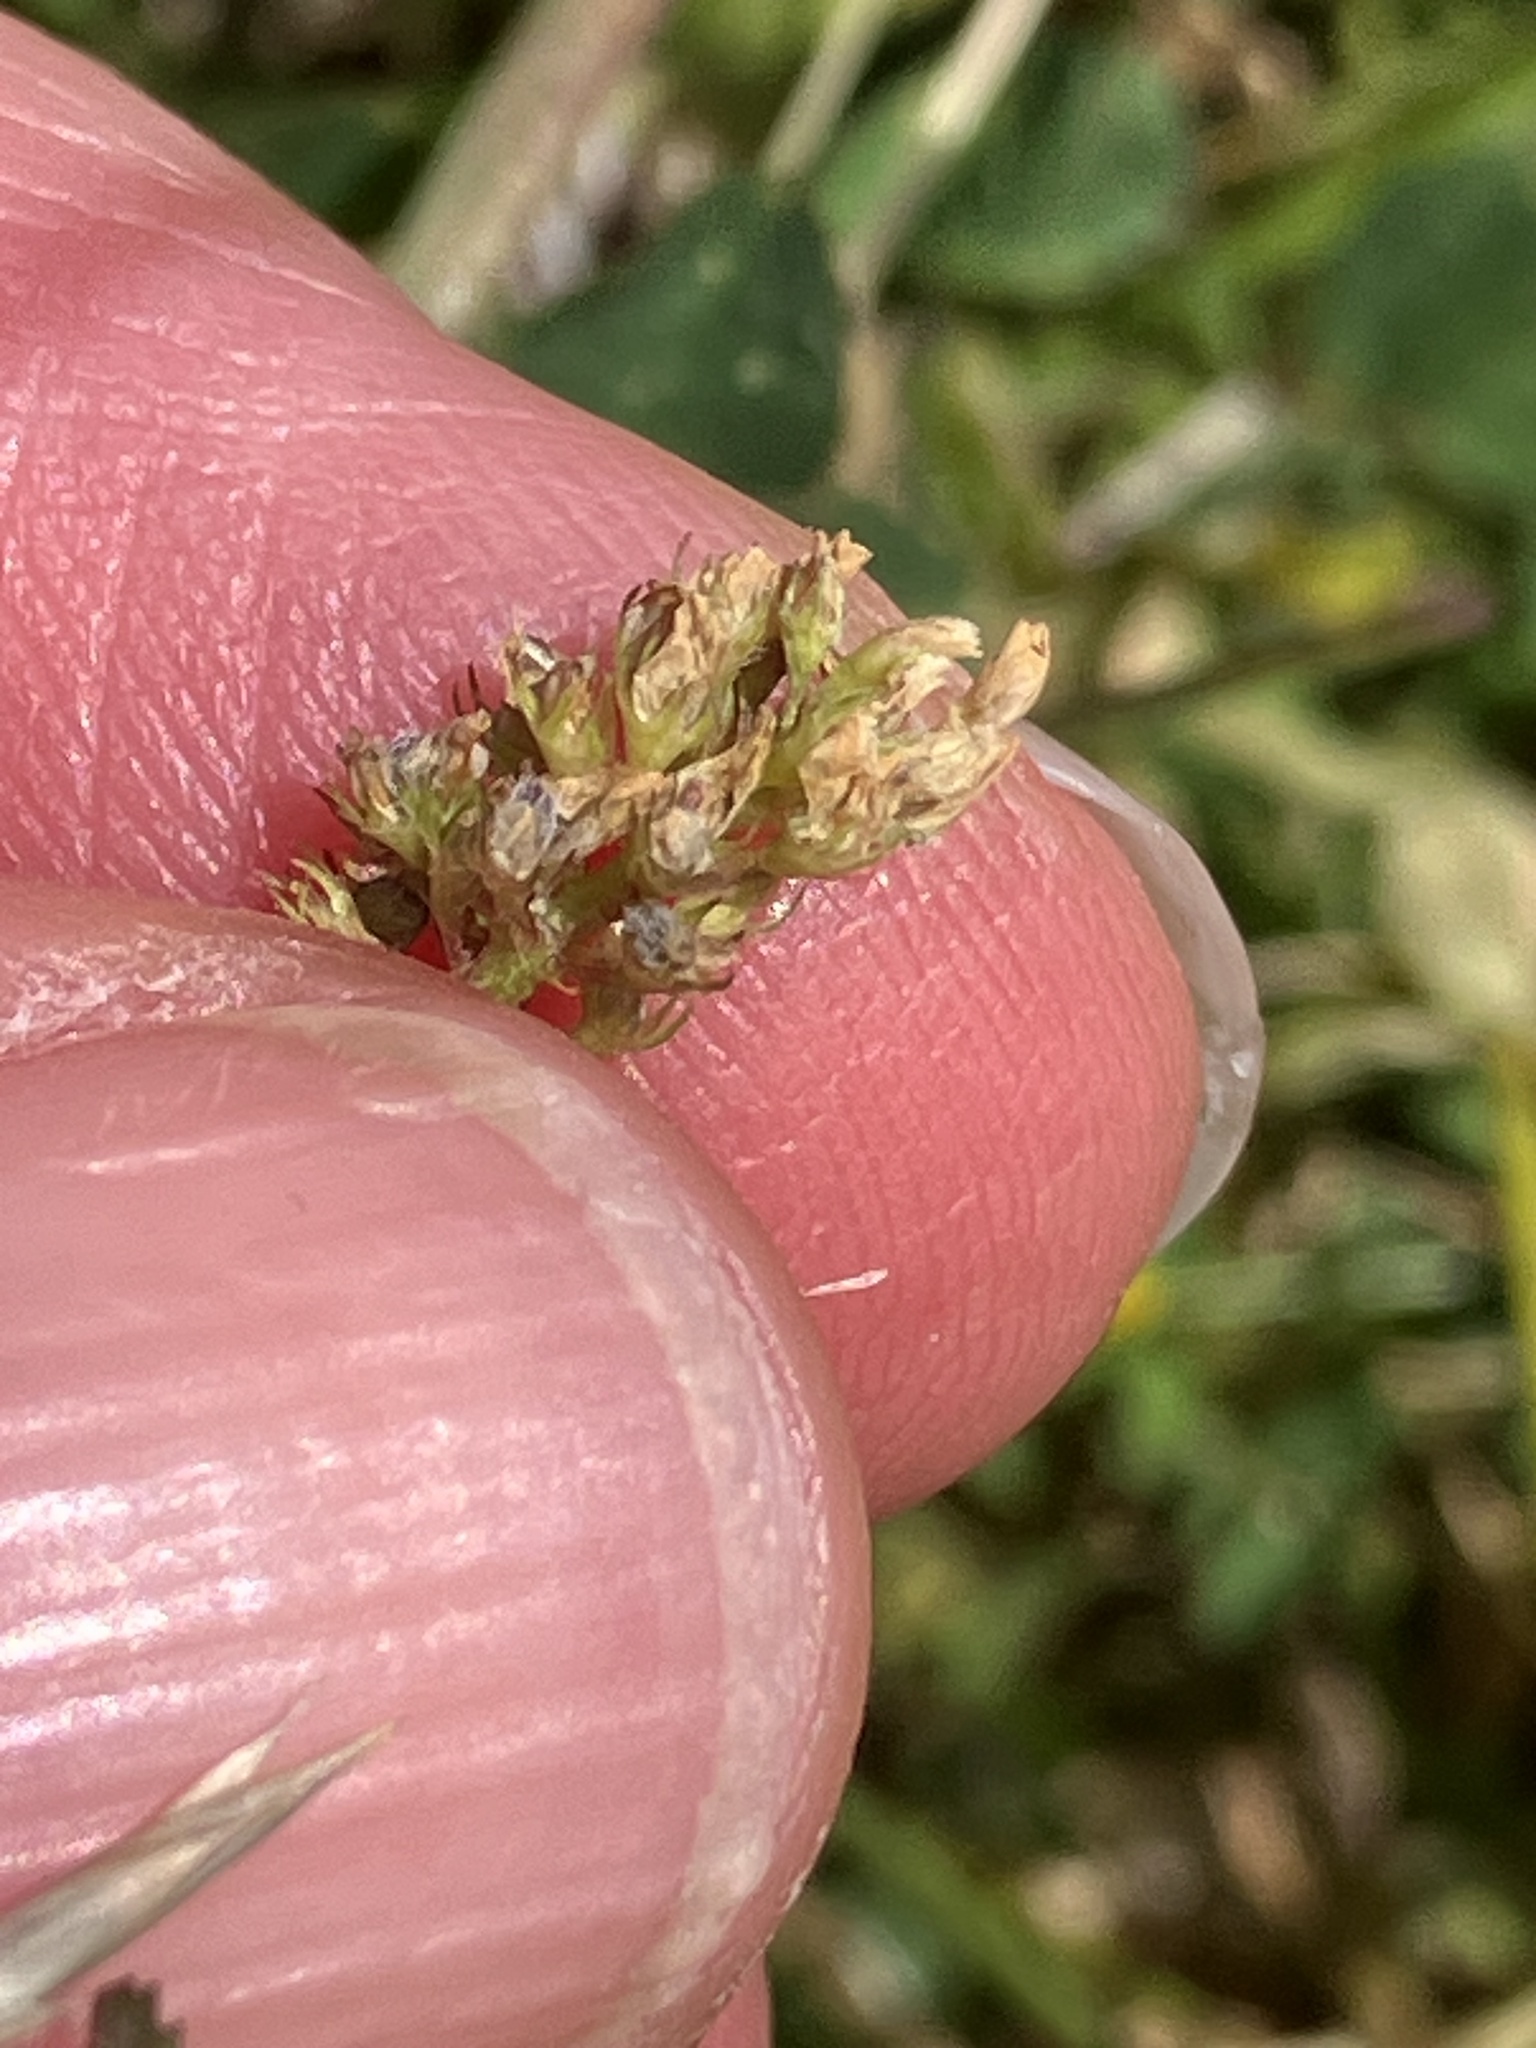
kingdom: Plantae
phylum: Tracheophyta
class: Magnoliopsida
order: Fabales
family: Fabaceae
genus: Medicago
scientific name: Medicago lupulina
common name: Black medick
